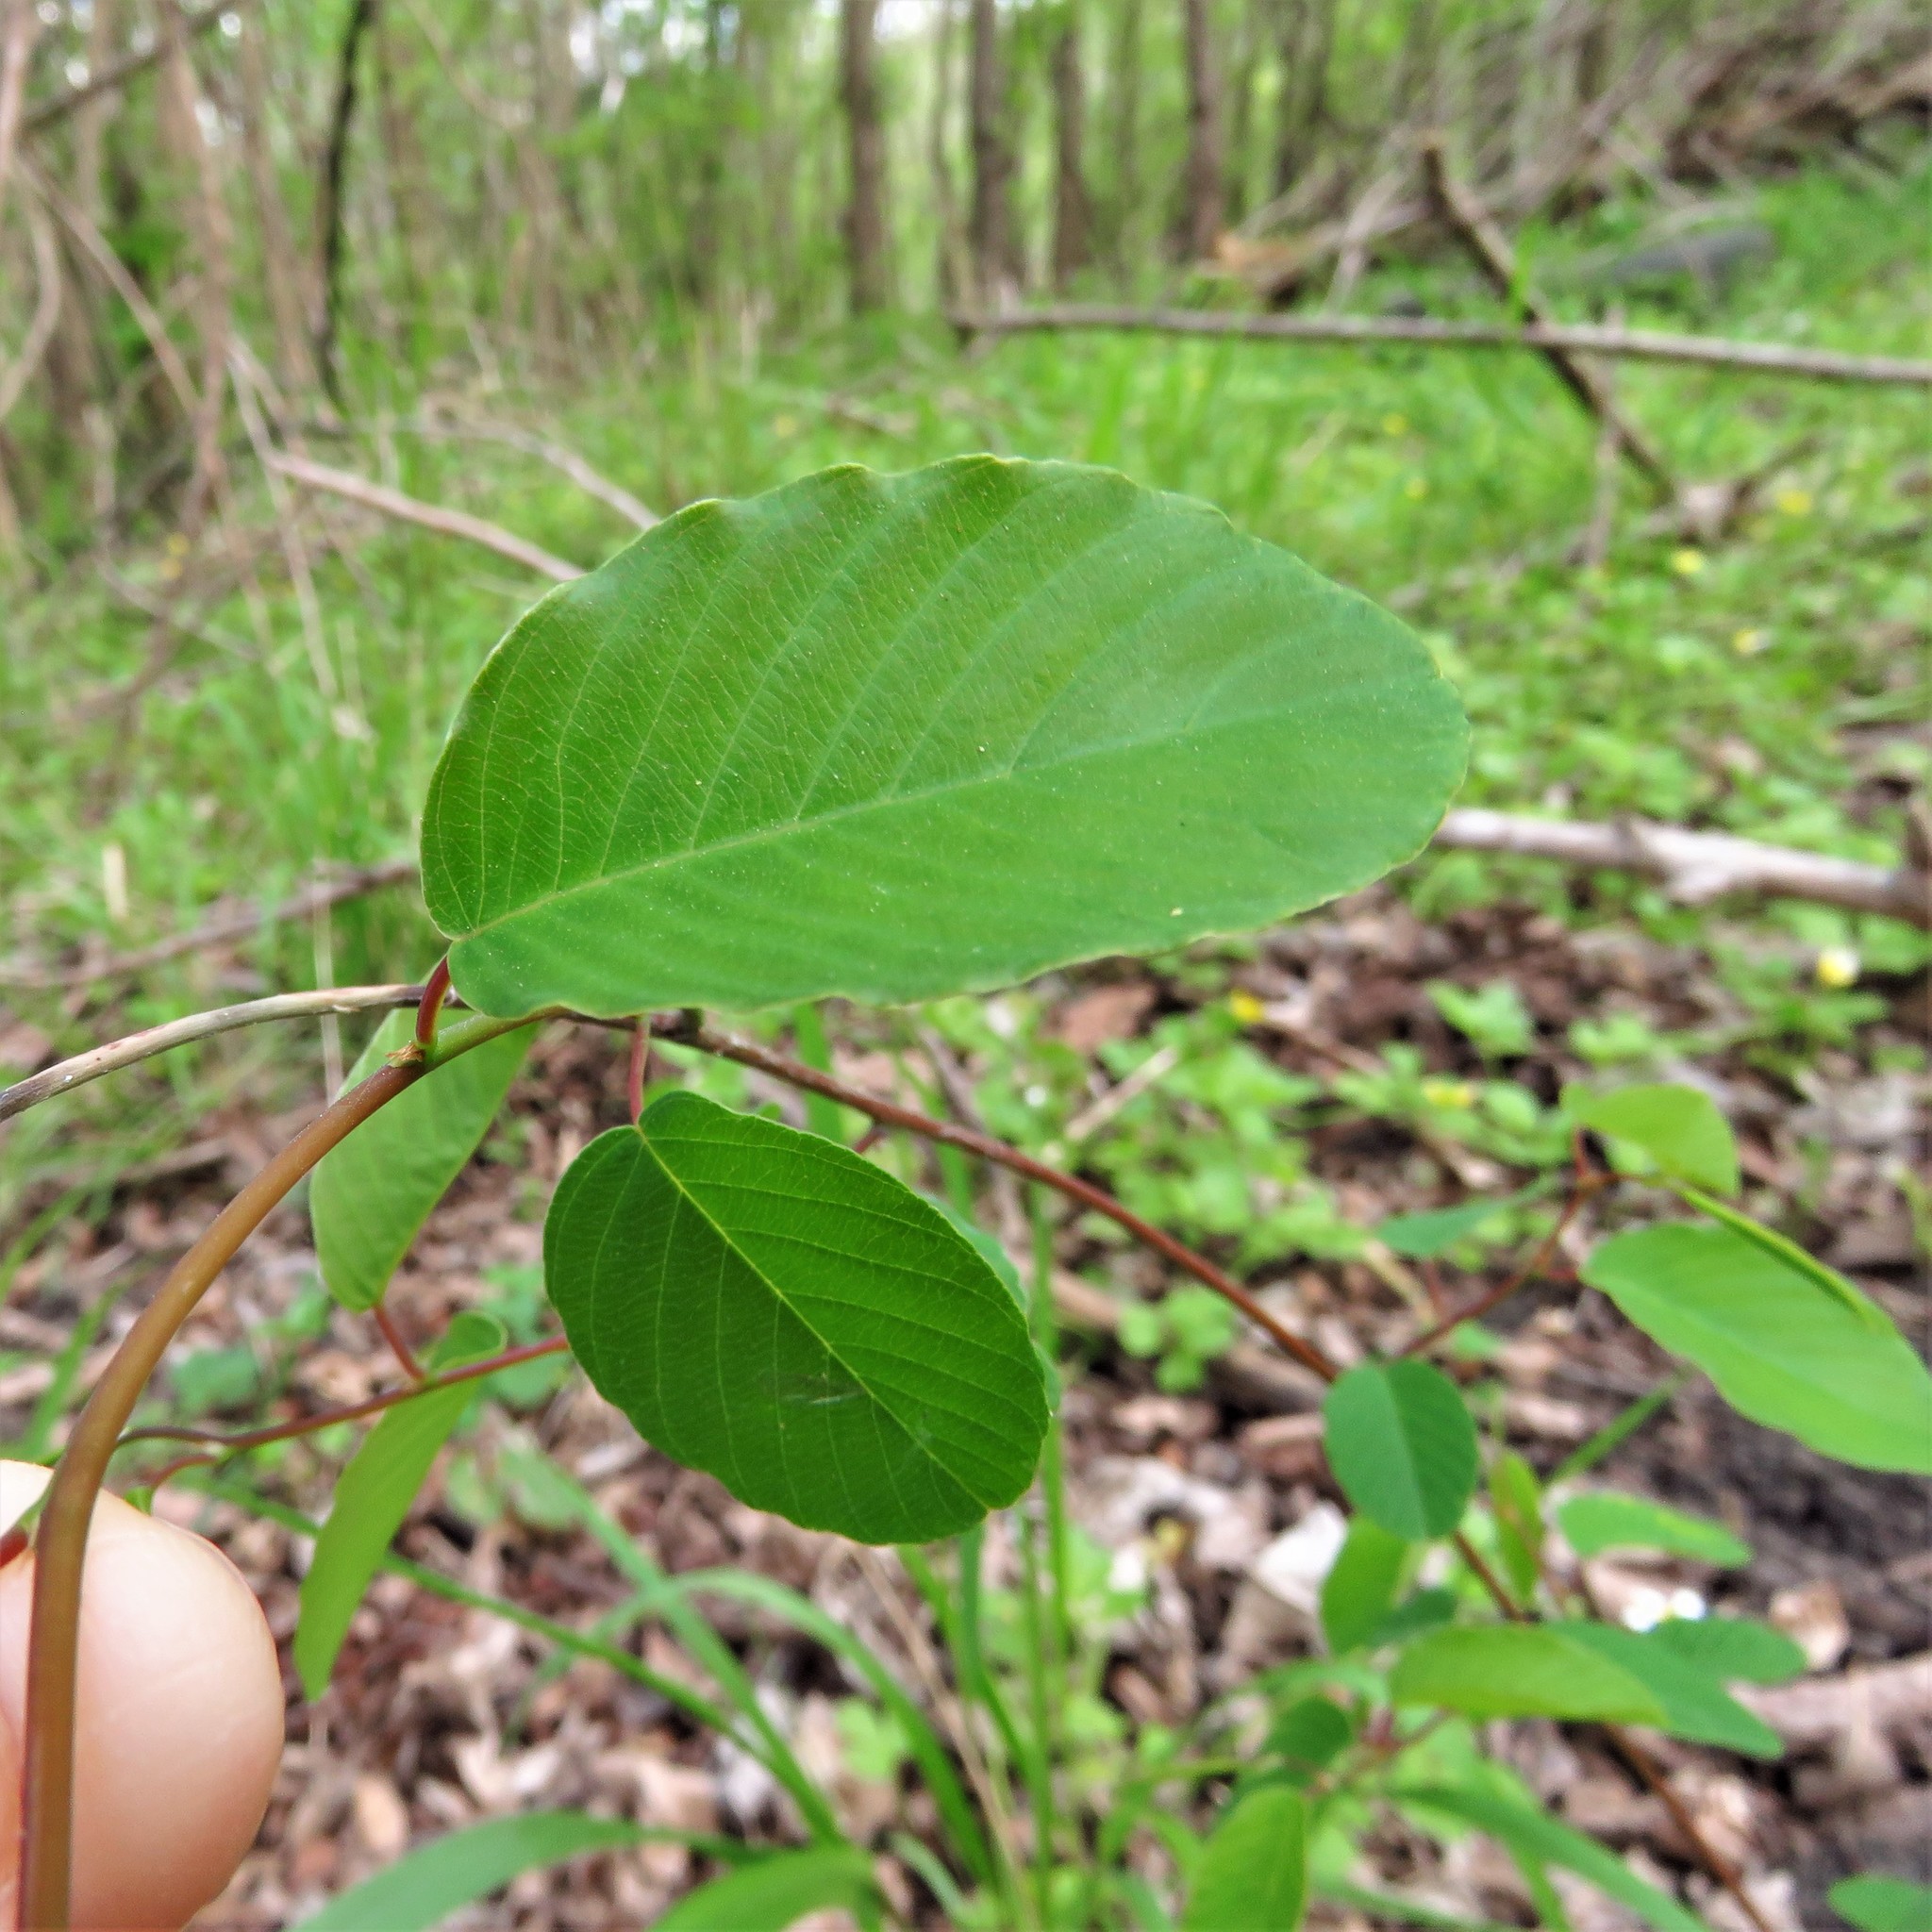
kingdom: Plantae
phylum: Tracheophyta
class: Magnoliopsida
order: Rosales
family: Rhamnaceae
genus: Berchemia
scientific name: Berchemia scandens
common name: Supplejack
